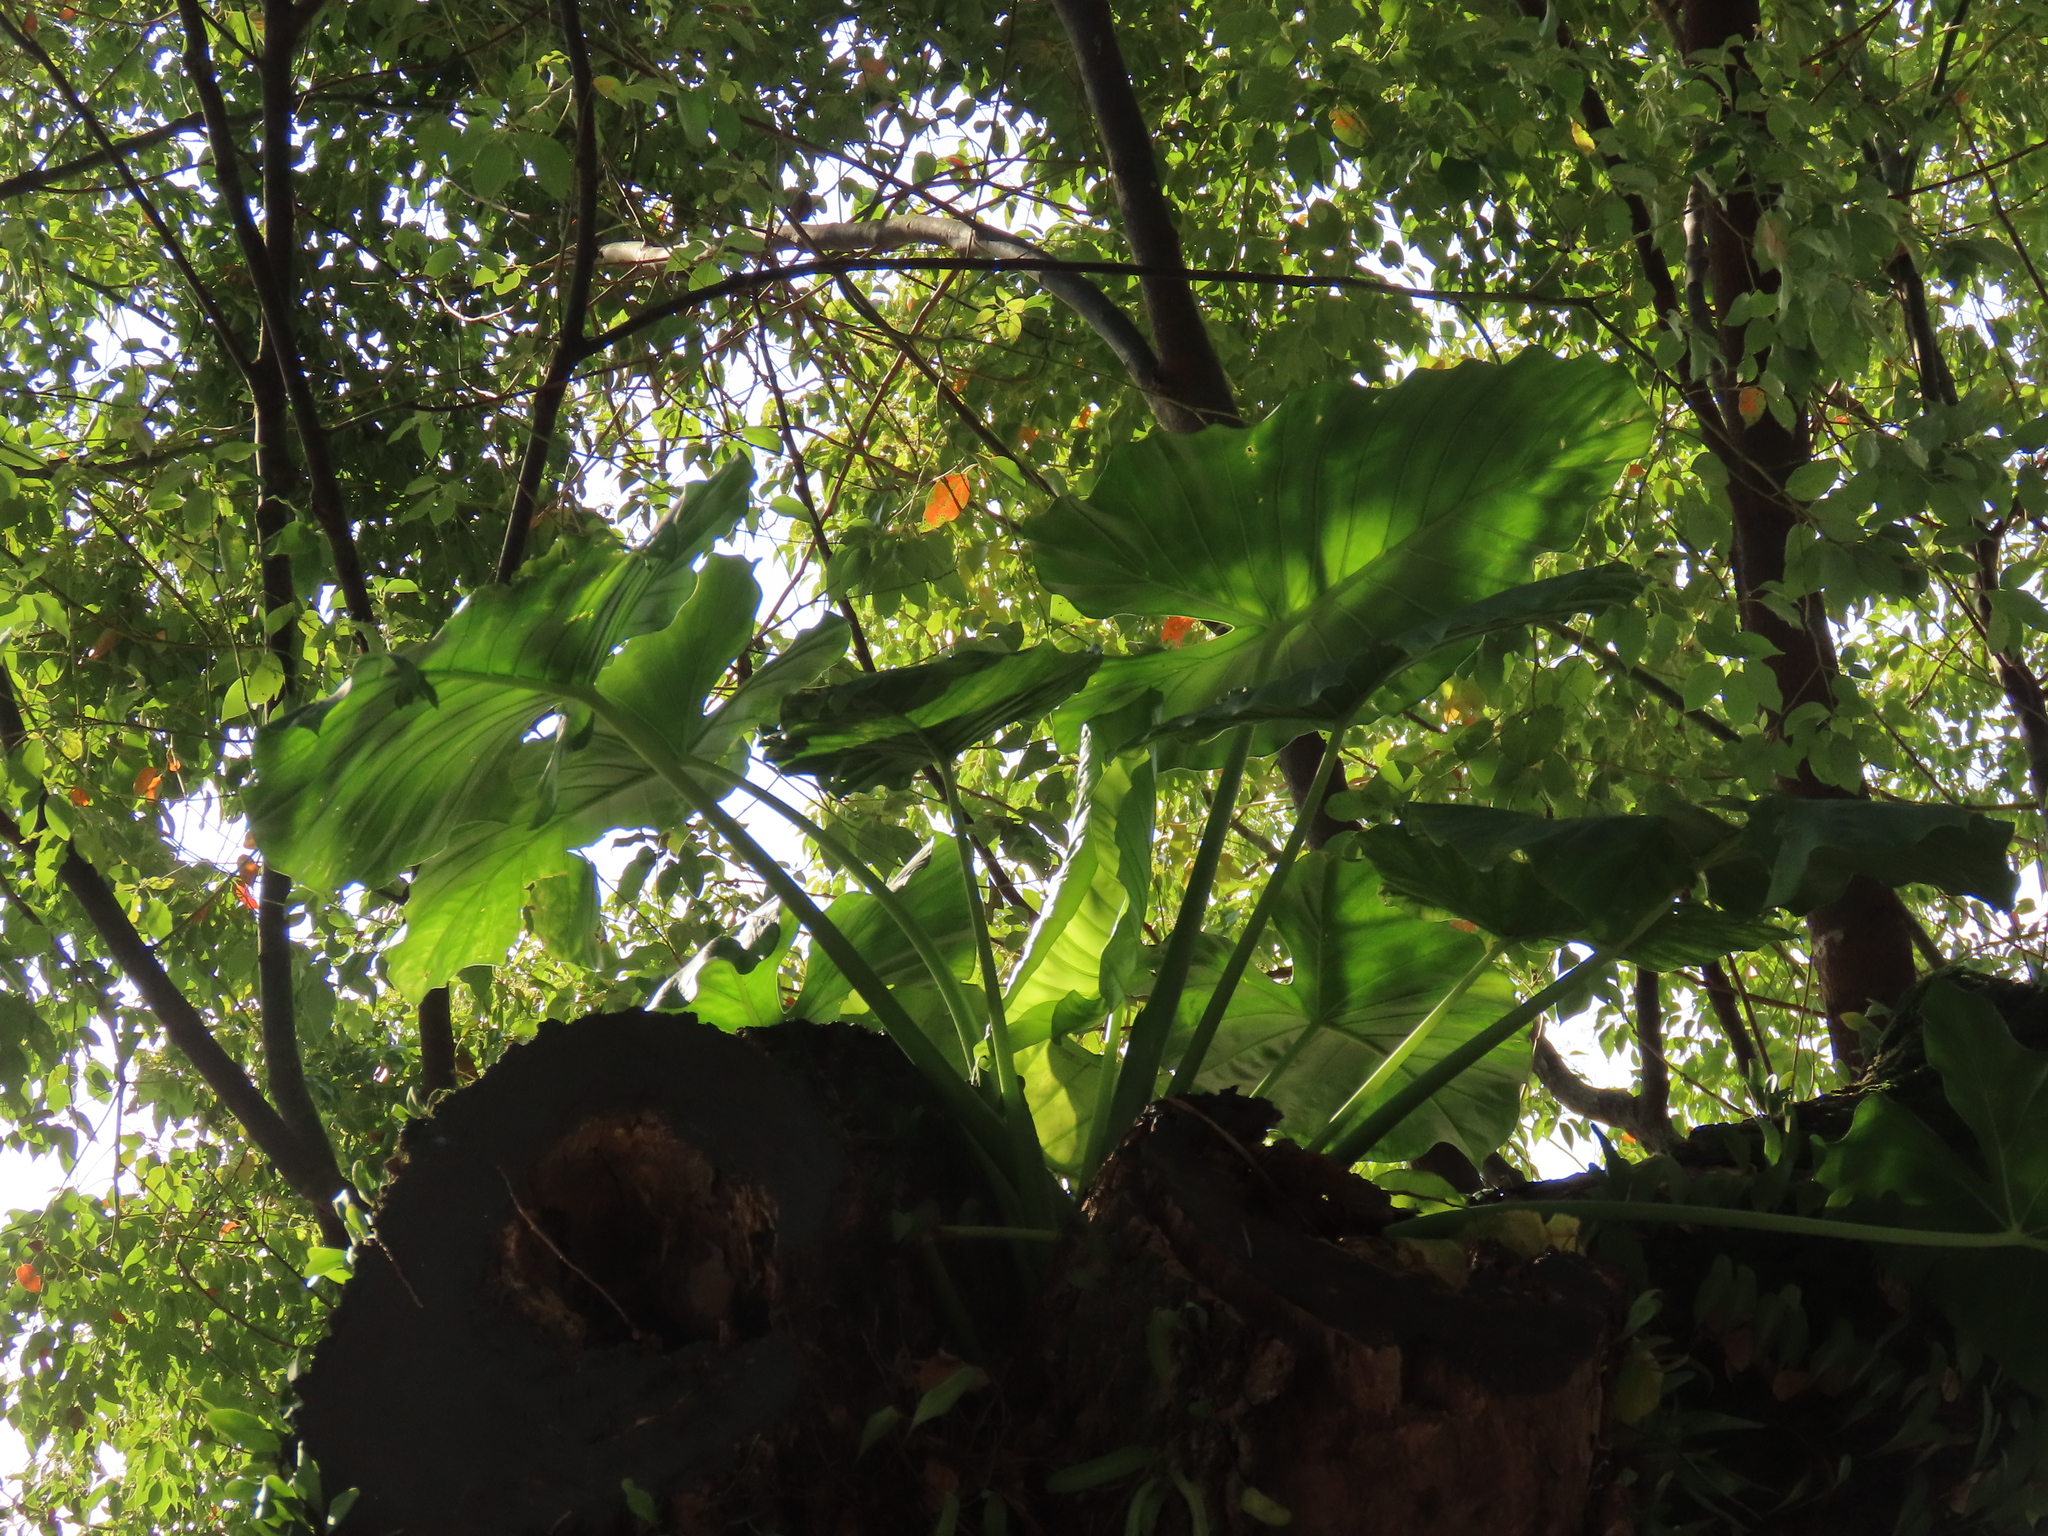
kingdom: Plantae
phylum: Tracheophyta
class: Liliopsida
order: Alismatales
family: Araceae
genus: Alocasia
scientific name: Alocasia odora
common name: Asian taro
